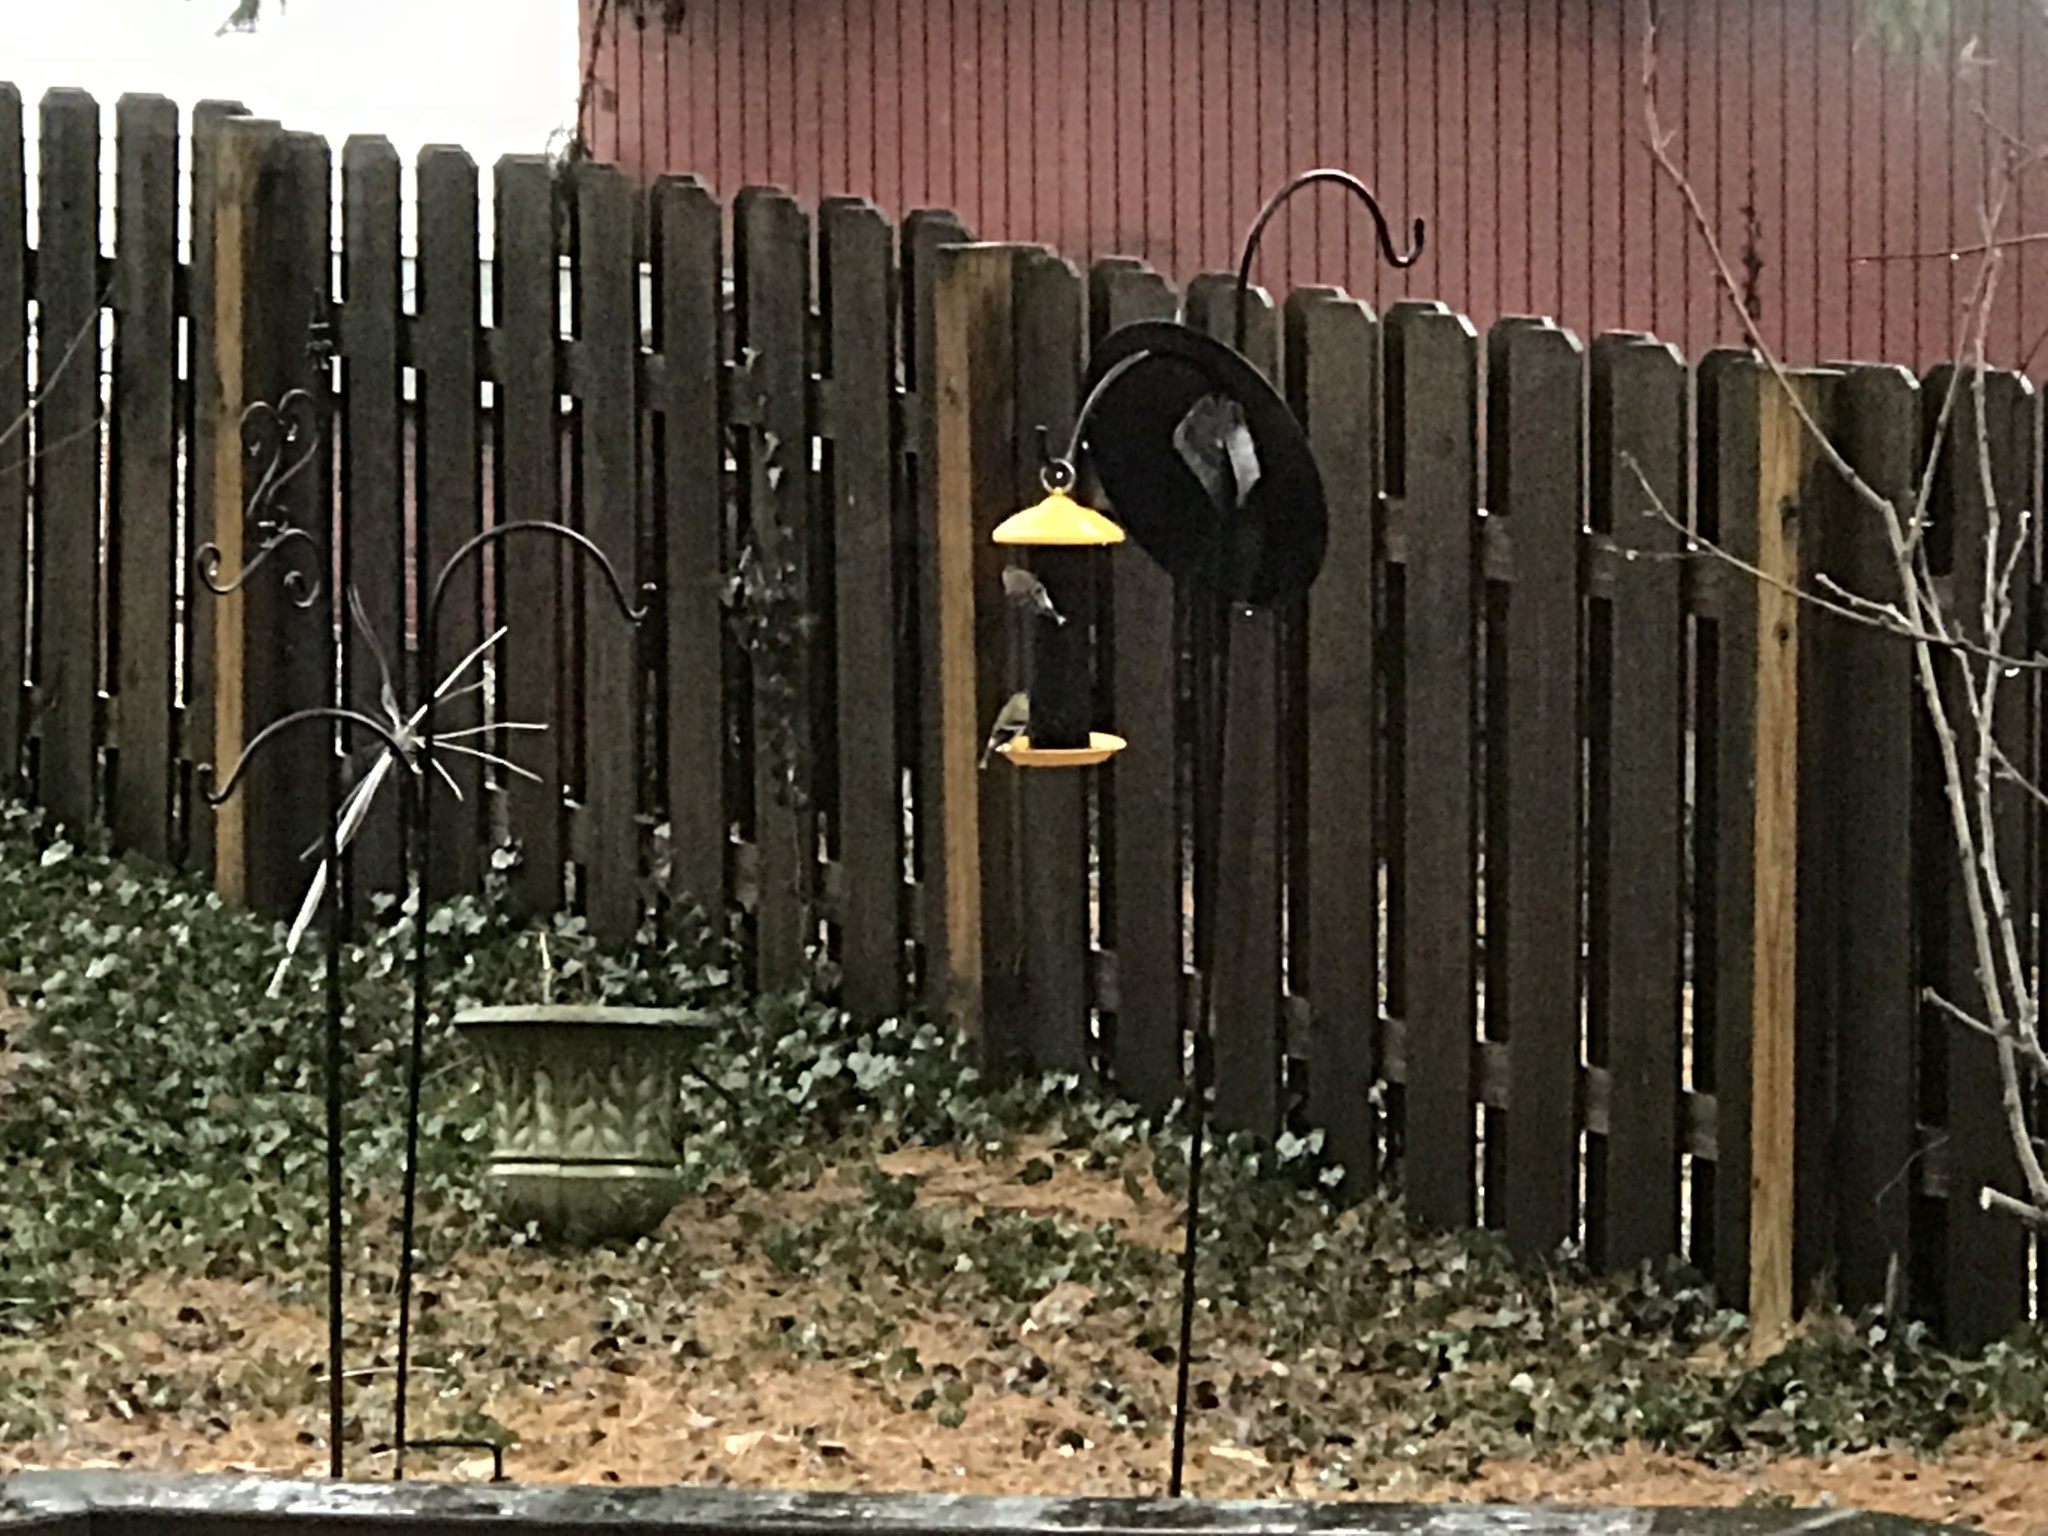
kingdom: Animalia
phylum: Chordata
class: Aves
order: Passeriformes
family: Fringillidae
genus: Spinus
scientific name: Spinus tristis
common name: American goldfinch
